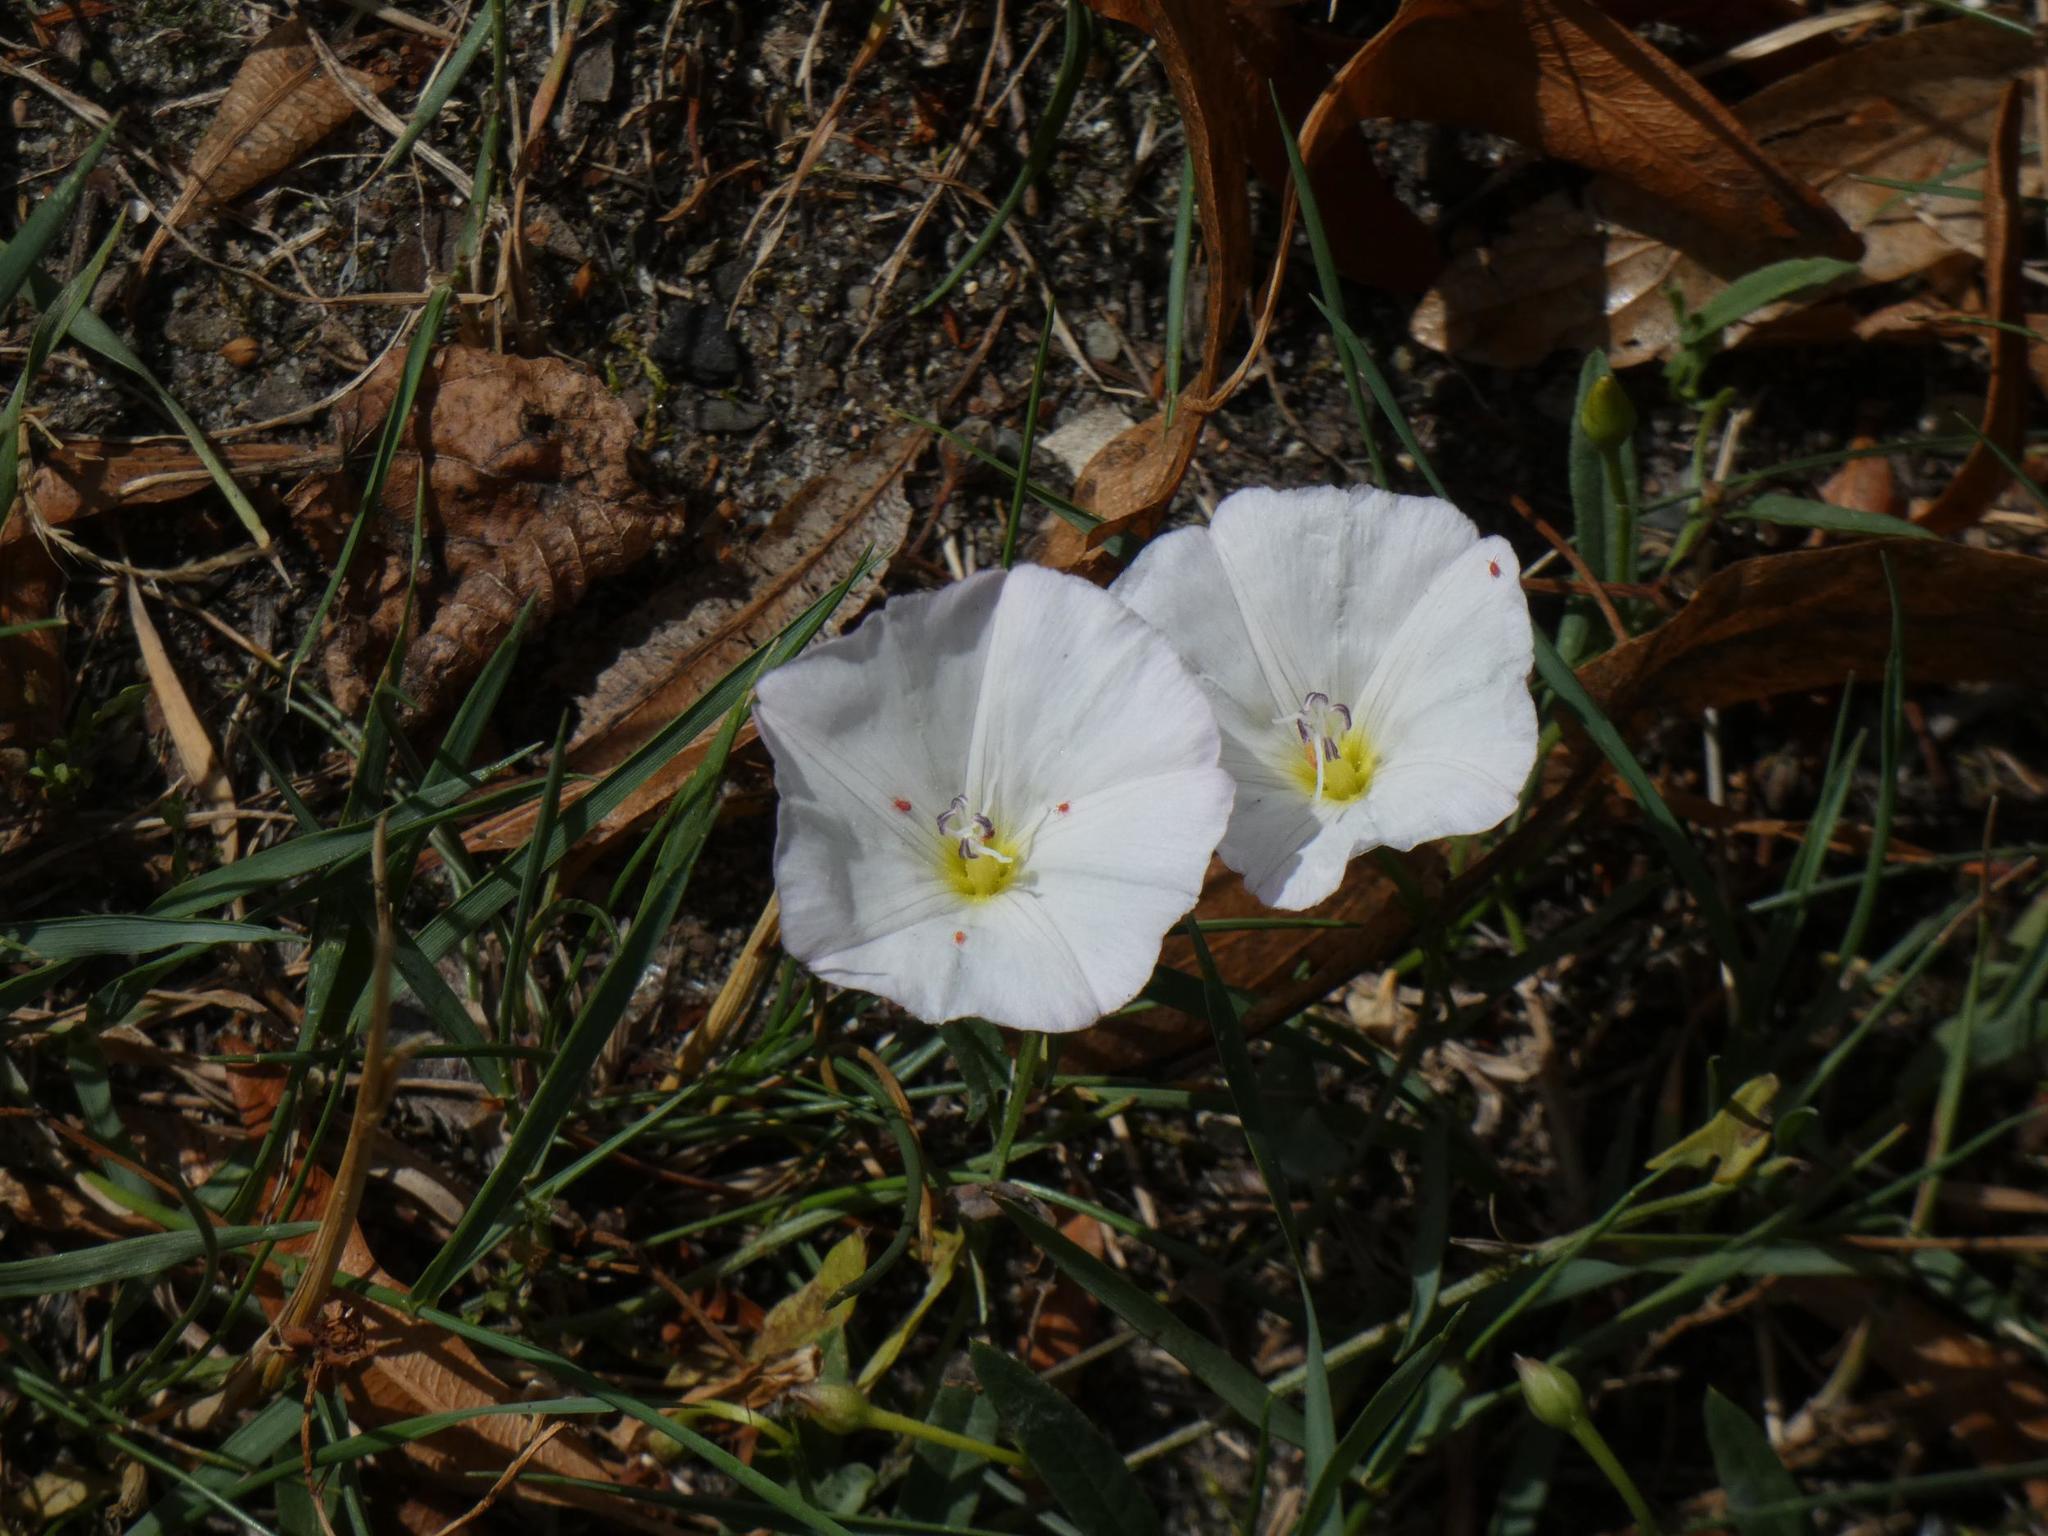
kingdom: Plantae
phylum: Tracheophyta
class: Magnoliopsida
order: Solanales
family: Convolvulaceae
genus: Convolvulus
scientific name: Convolvulus arvensis
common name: Field bindweed
